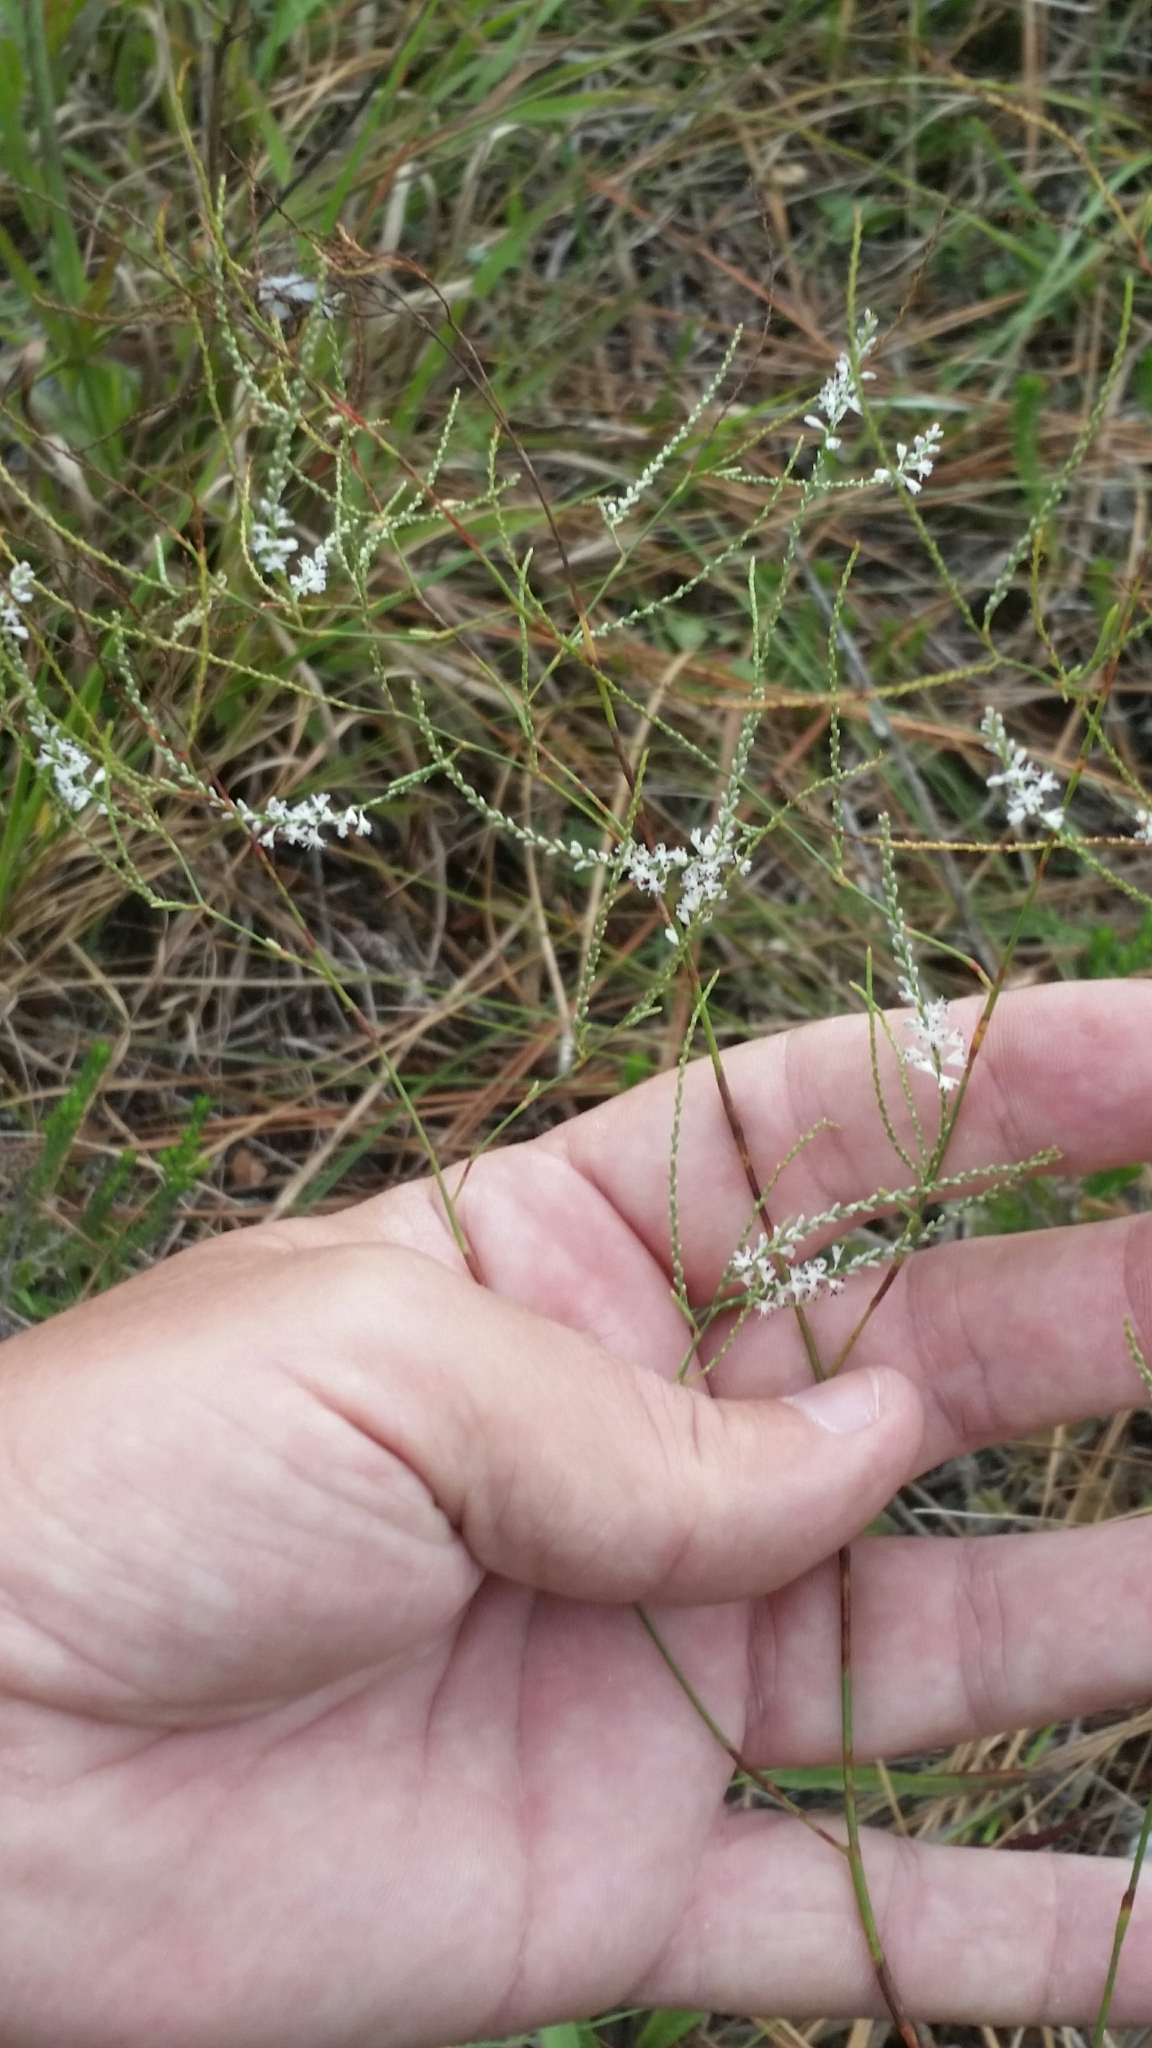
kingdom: Plantae
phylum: Tracheophyta
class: Magnoliopsida
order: Caryophyllales
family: Polygonaceae
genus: Polygonella
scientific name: Polygonella ciliata
